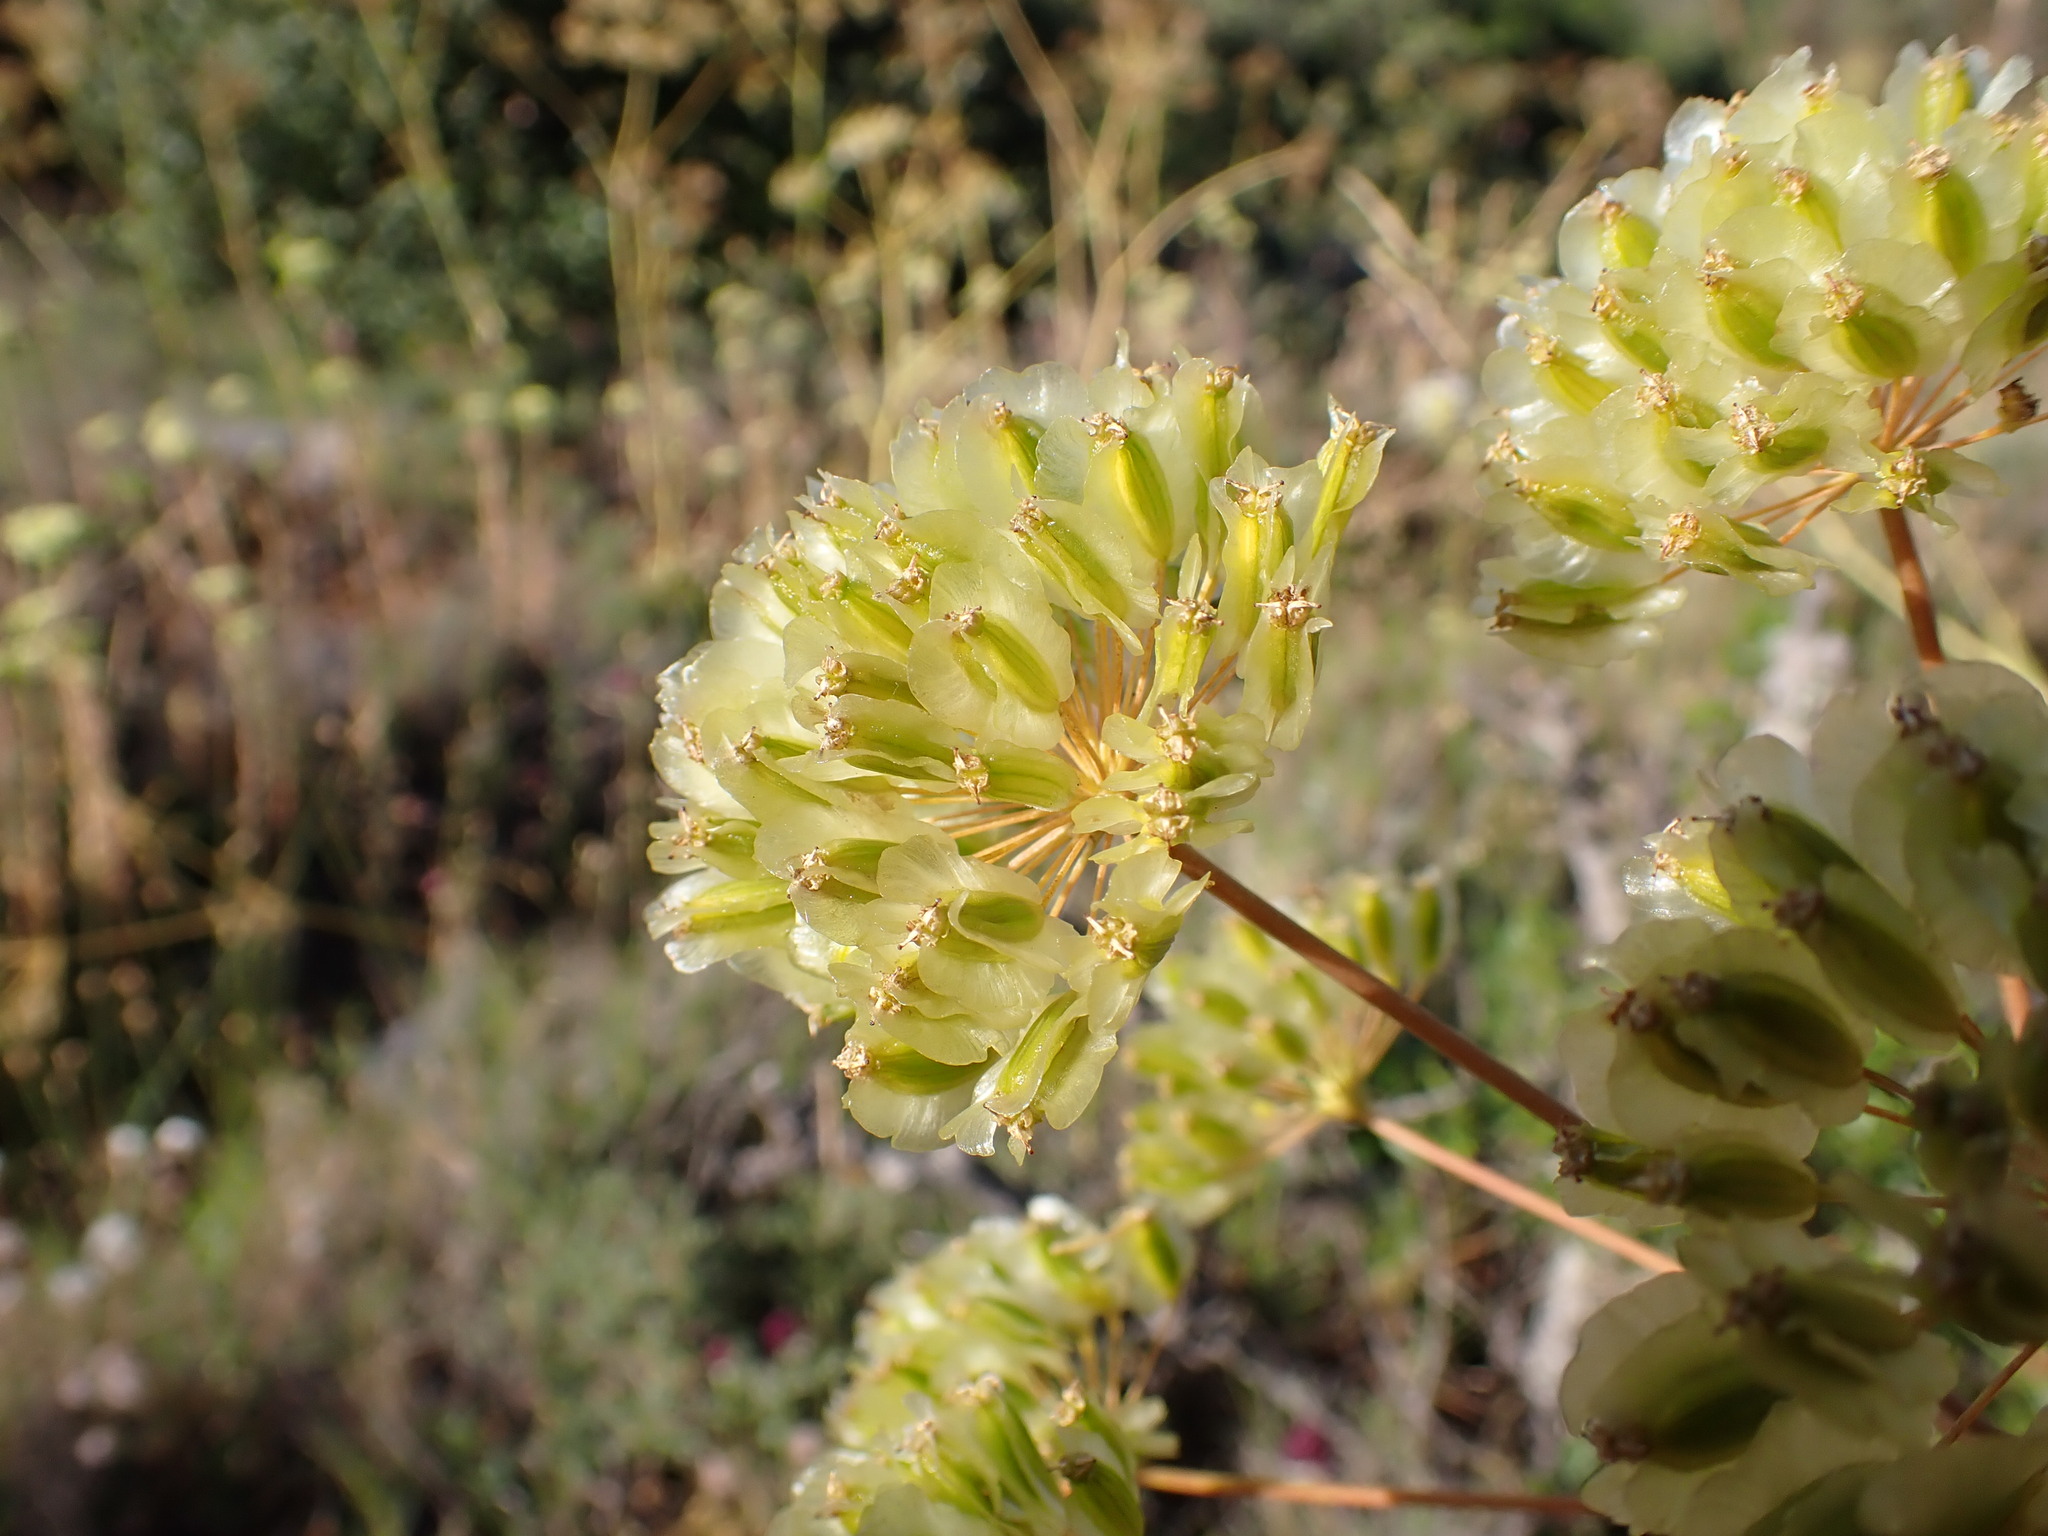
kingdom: Plantae
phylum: Tracheophyta
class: Magnoliopsida
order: Apiales
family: Apiaceae
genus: Thapsia
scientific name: Thapsia villosa
